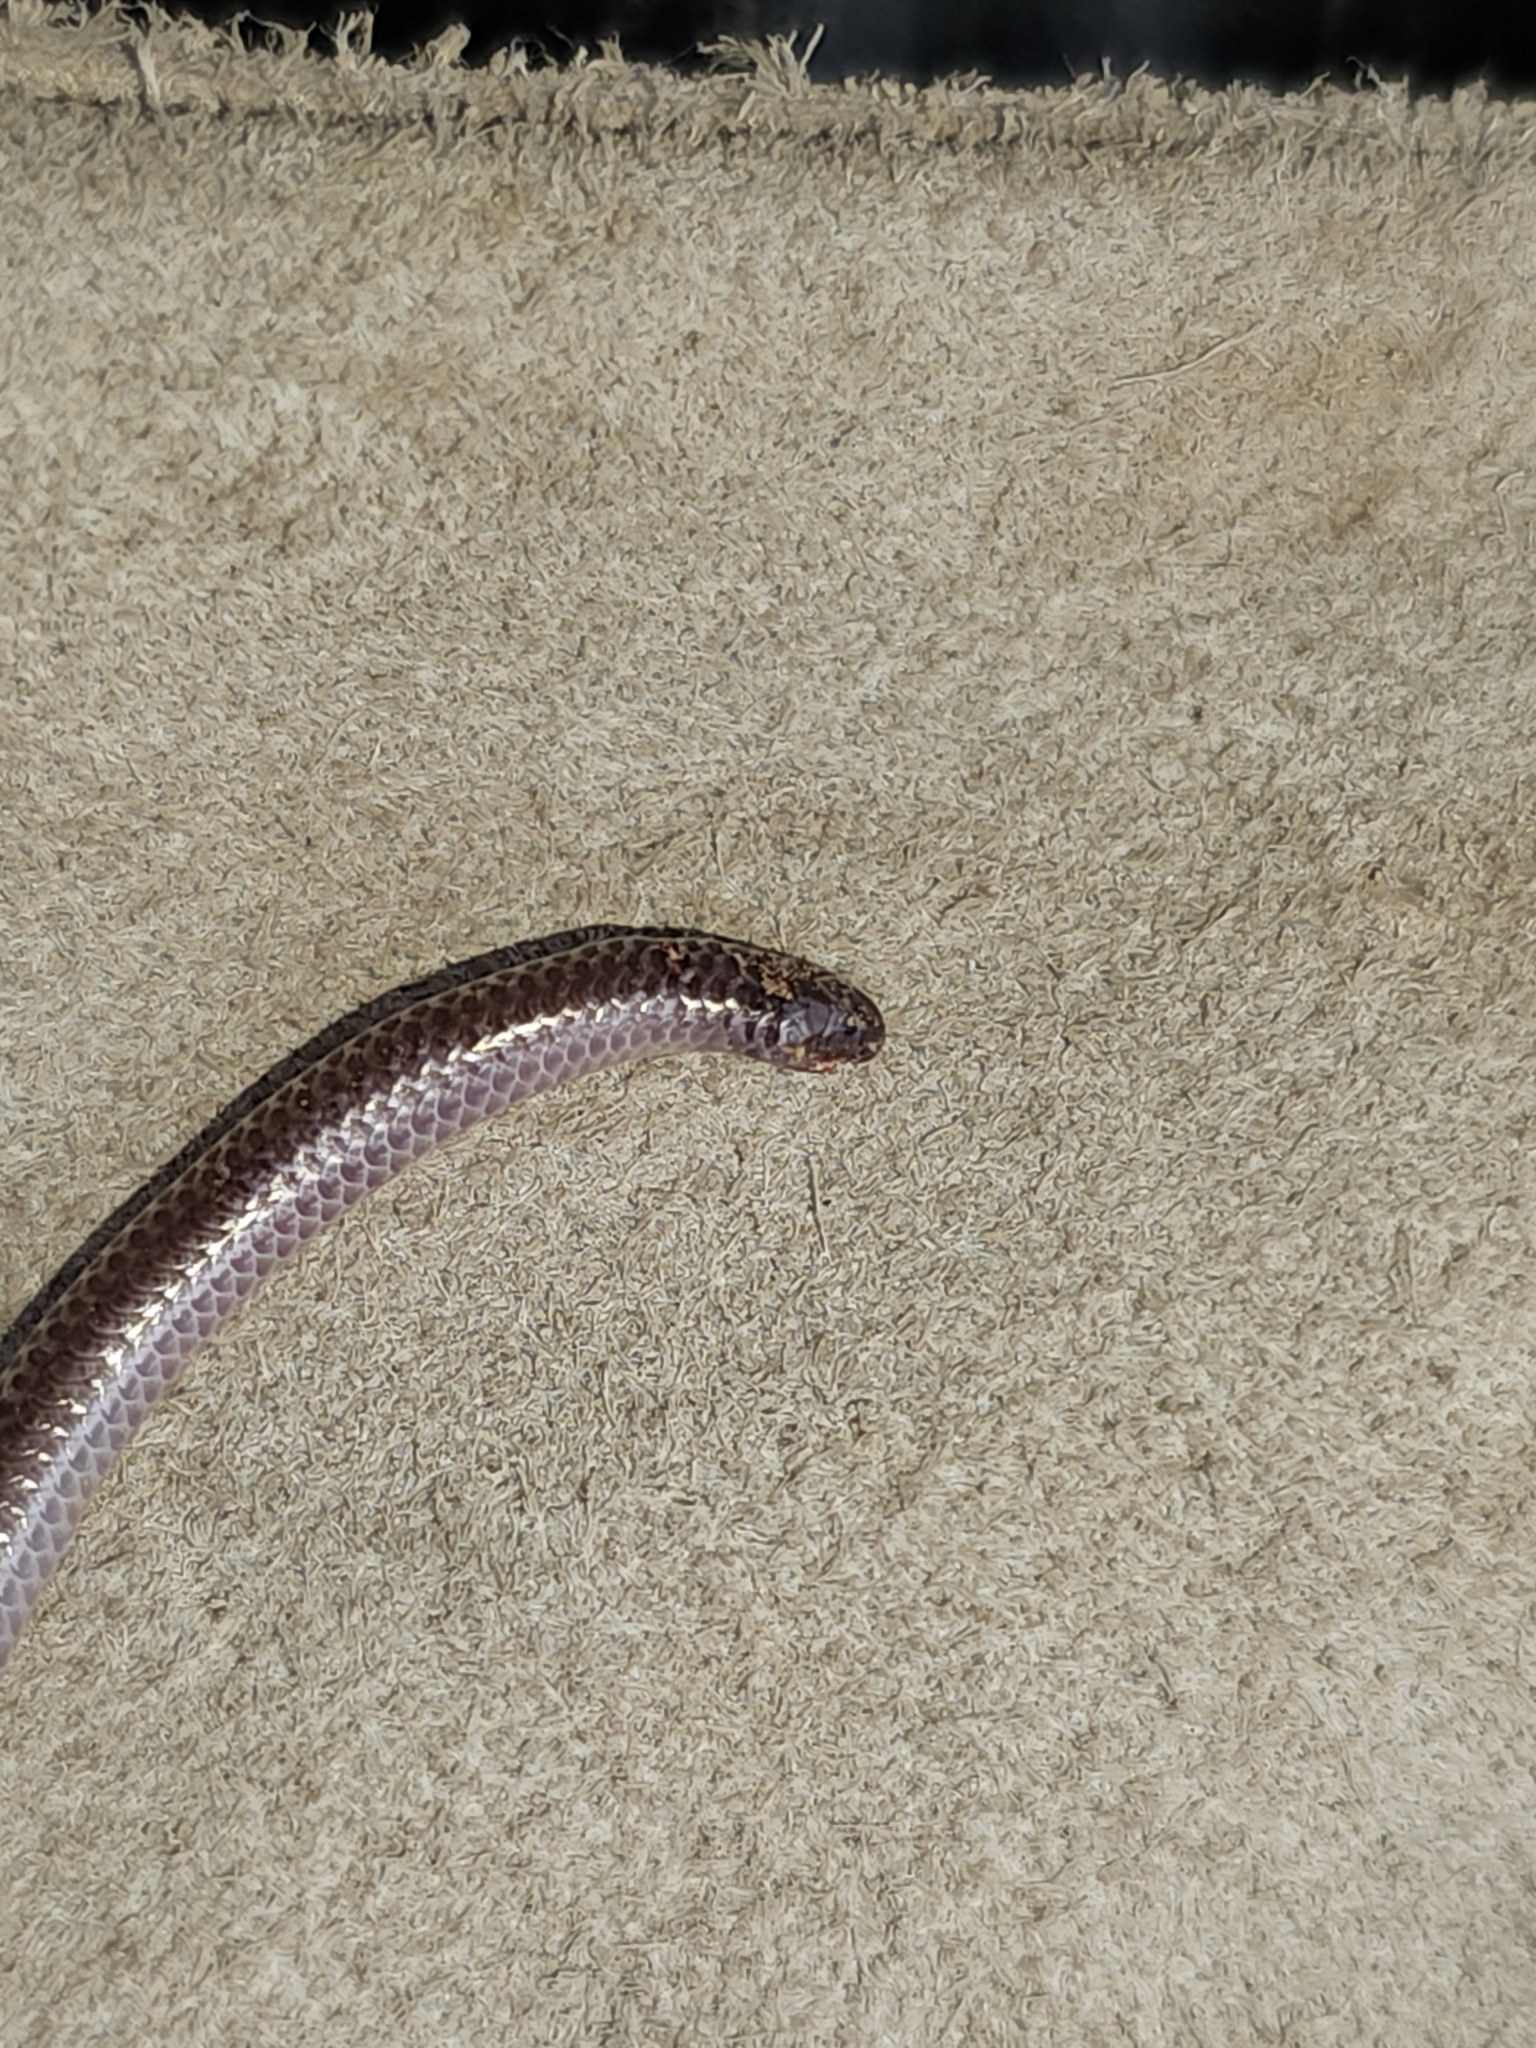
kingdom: Animalia
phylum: Chordata
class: Squamata
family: Leptotyphlopidae
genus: Rena
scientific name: Rena dulcis
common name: Texas blind snake
